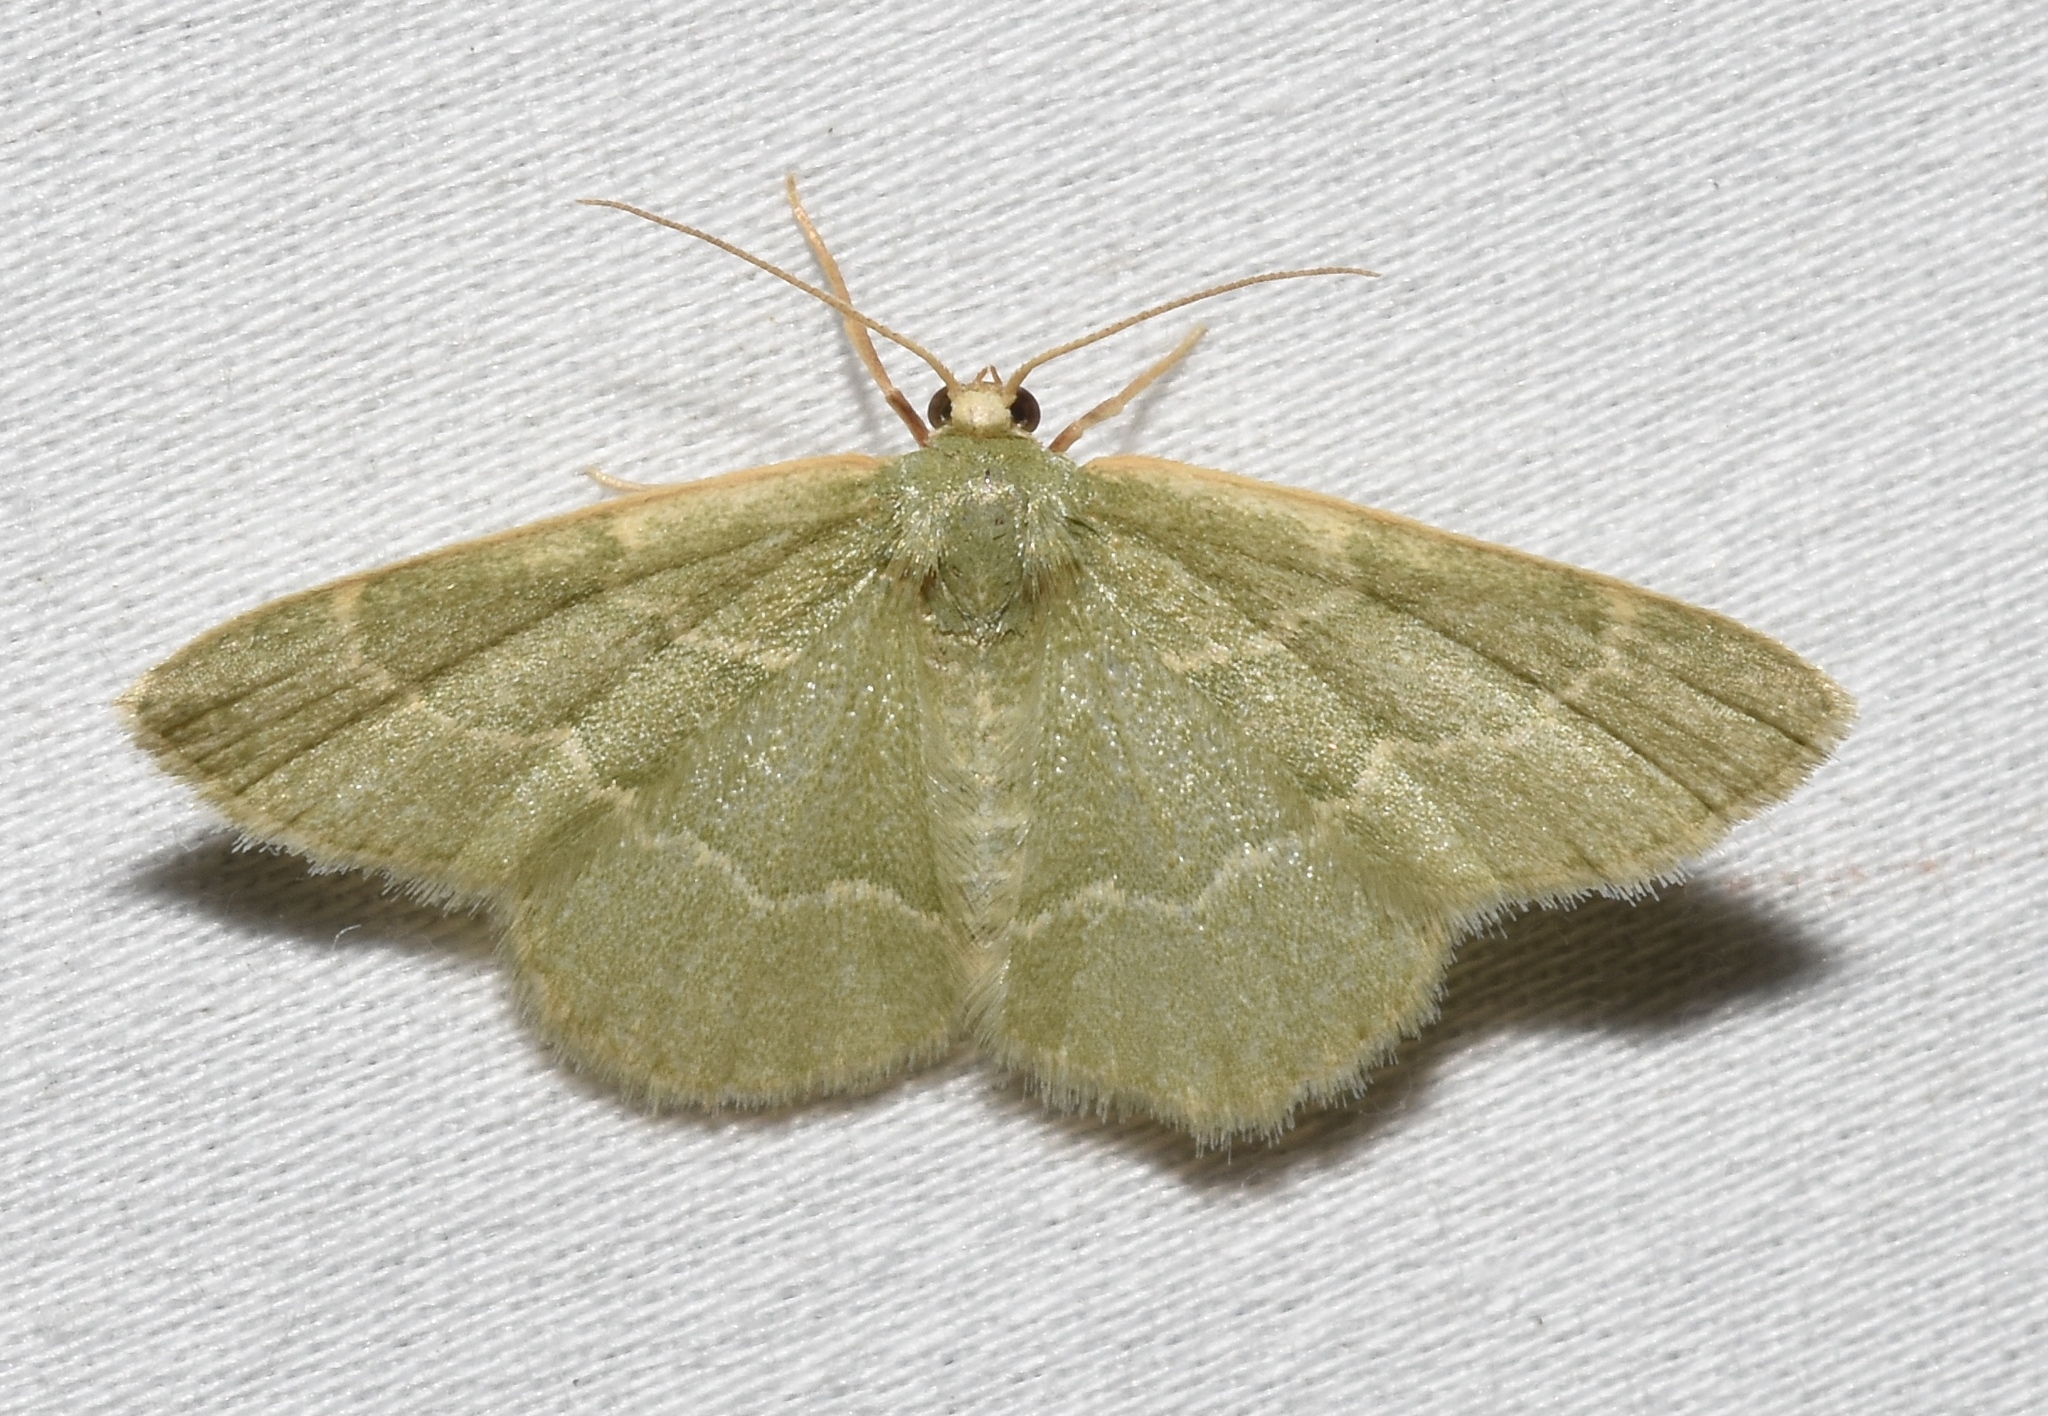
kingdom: Animalia
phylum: Arthropoda
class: Insecta
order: Lepidoptera
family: Geometridae
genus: Chlorochlamys
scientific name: Chlorochlamys phyllinaria
